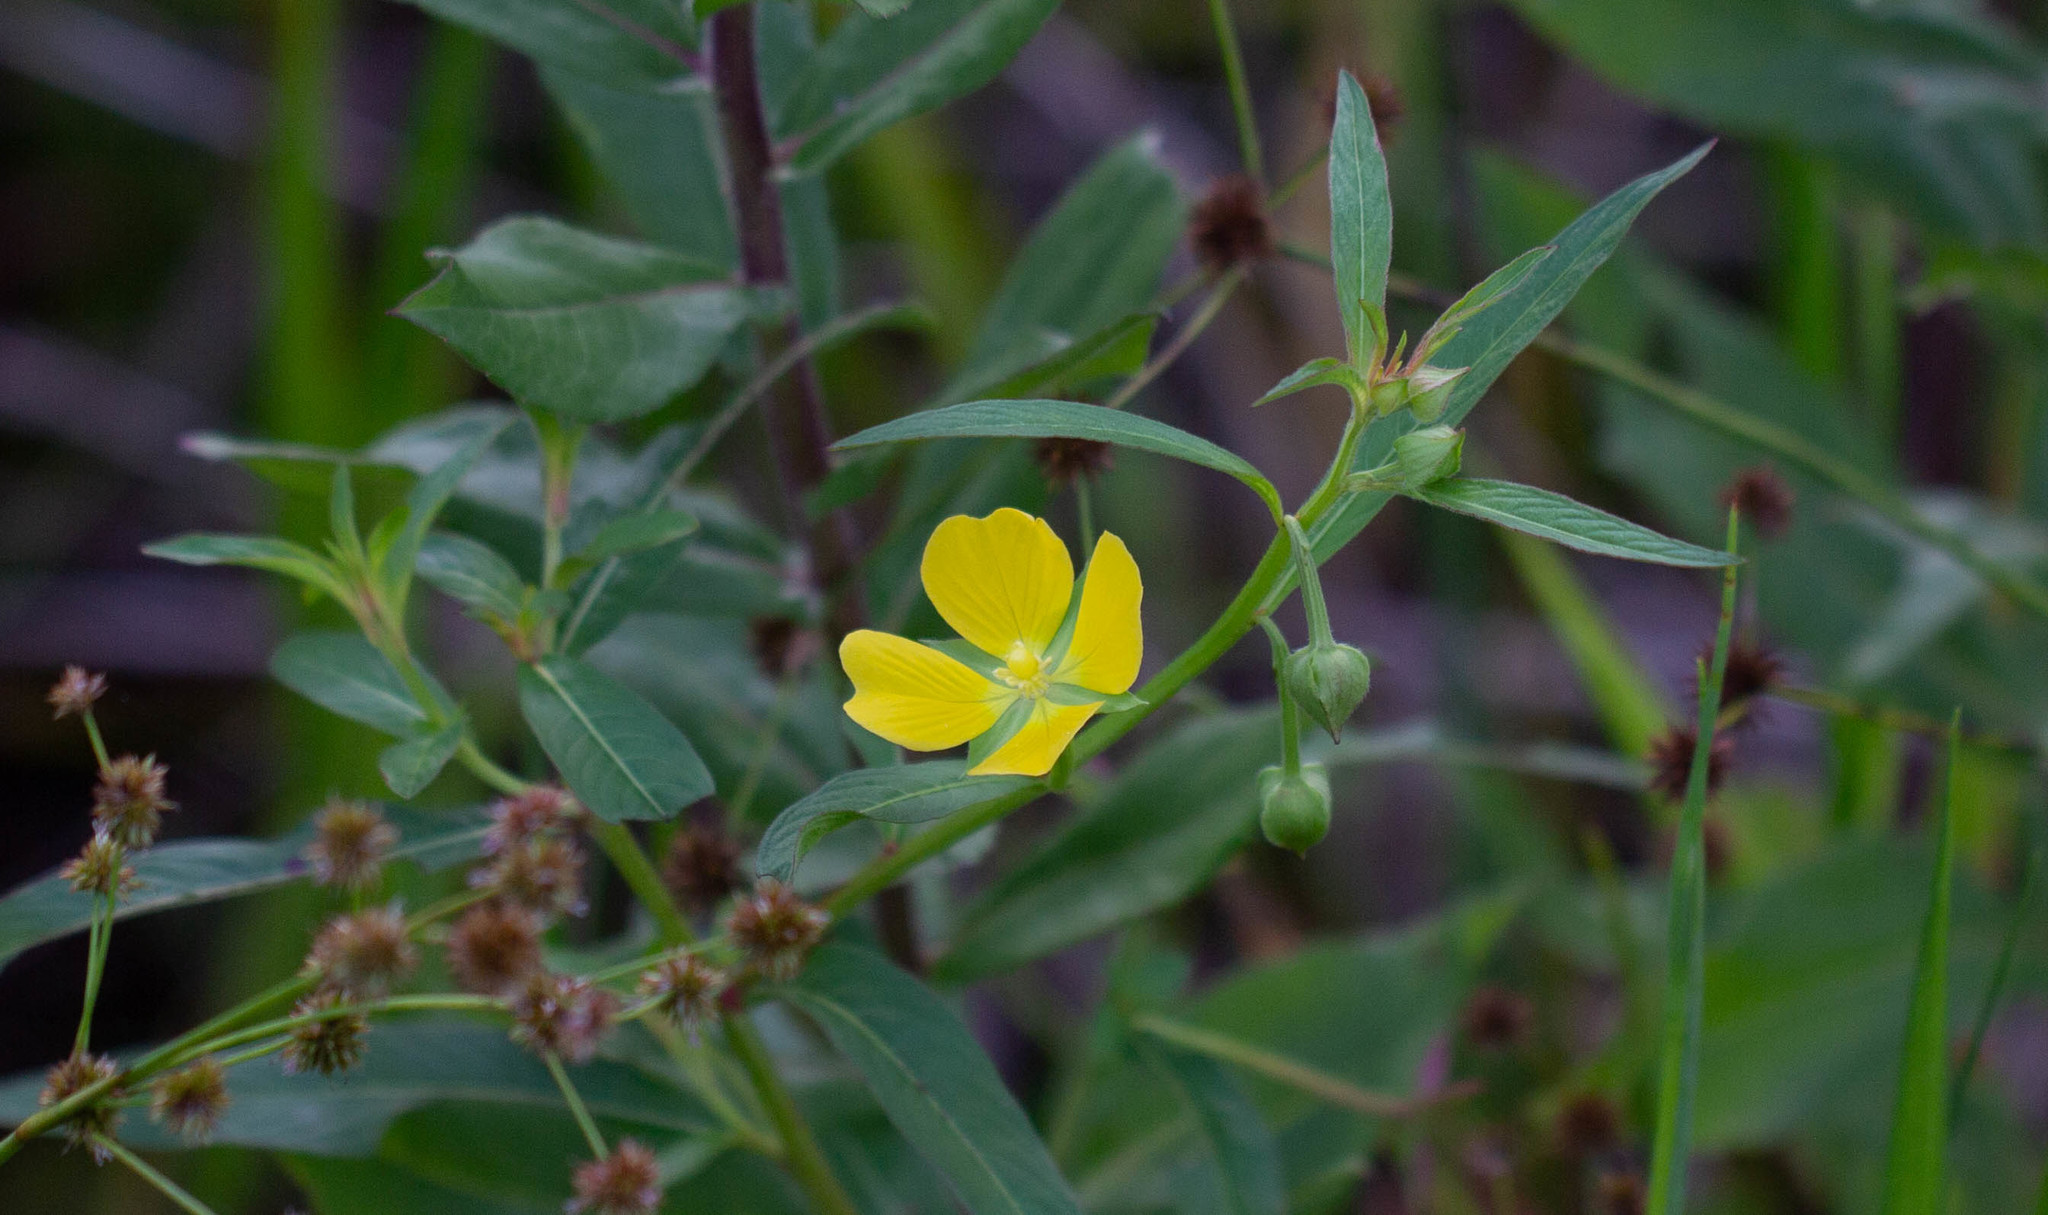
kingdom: Plantae
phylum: Tracheophyta
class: Magnoliopsida
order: Myrtales
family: Onagraceae
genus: Ludwigia
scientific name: Ludwigia decurrens
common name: Winged water-primrose
